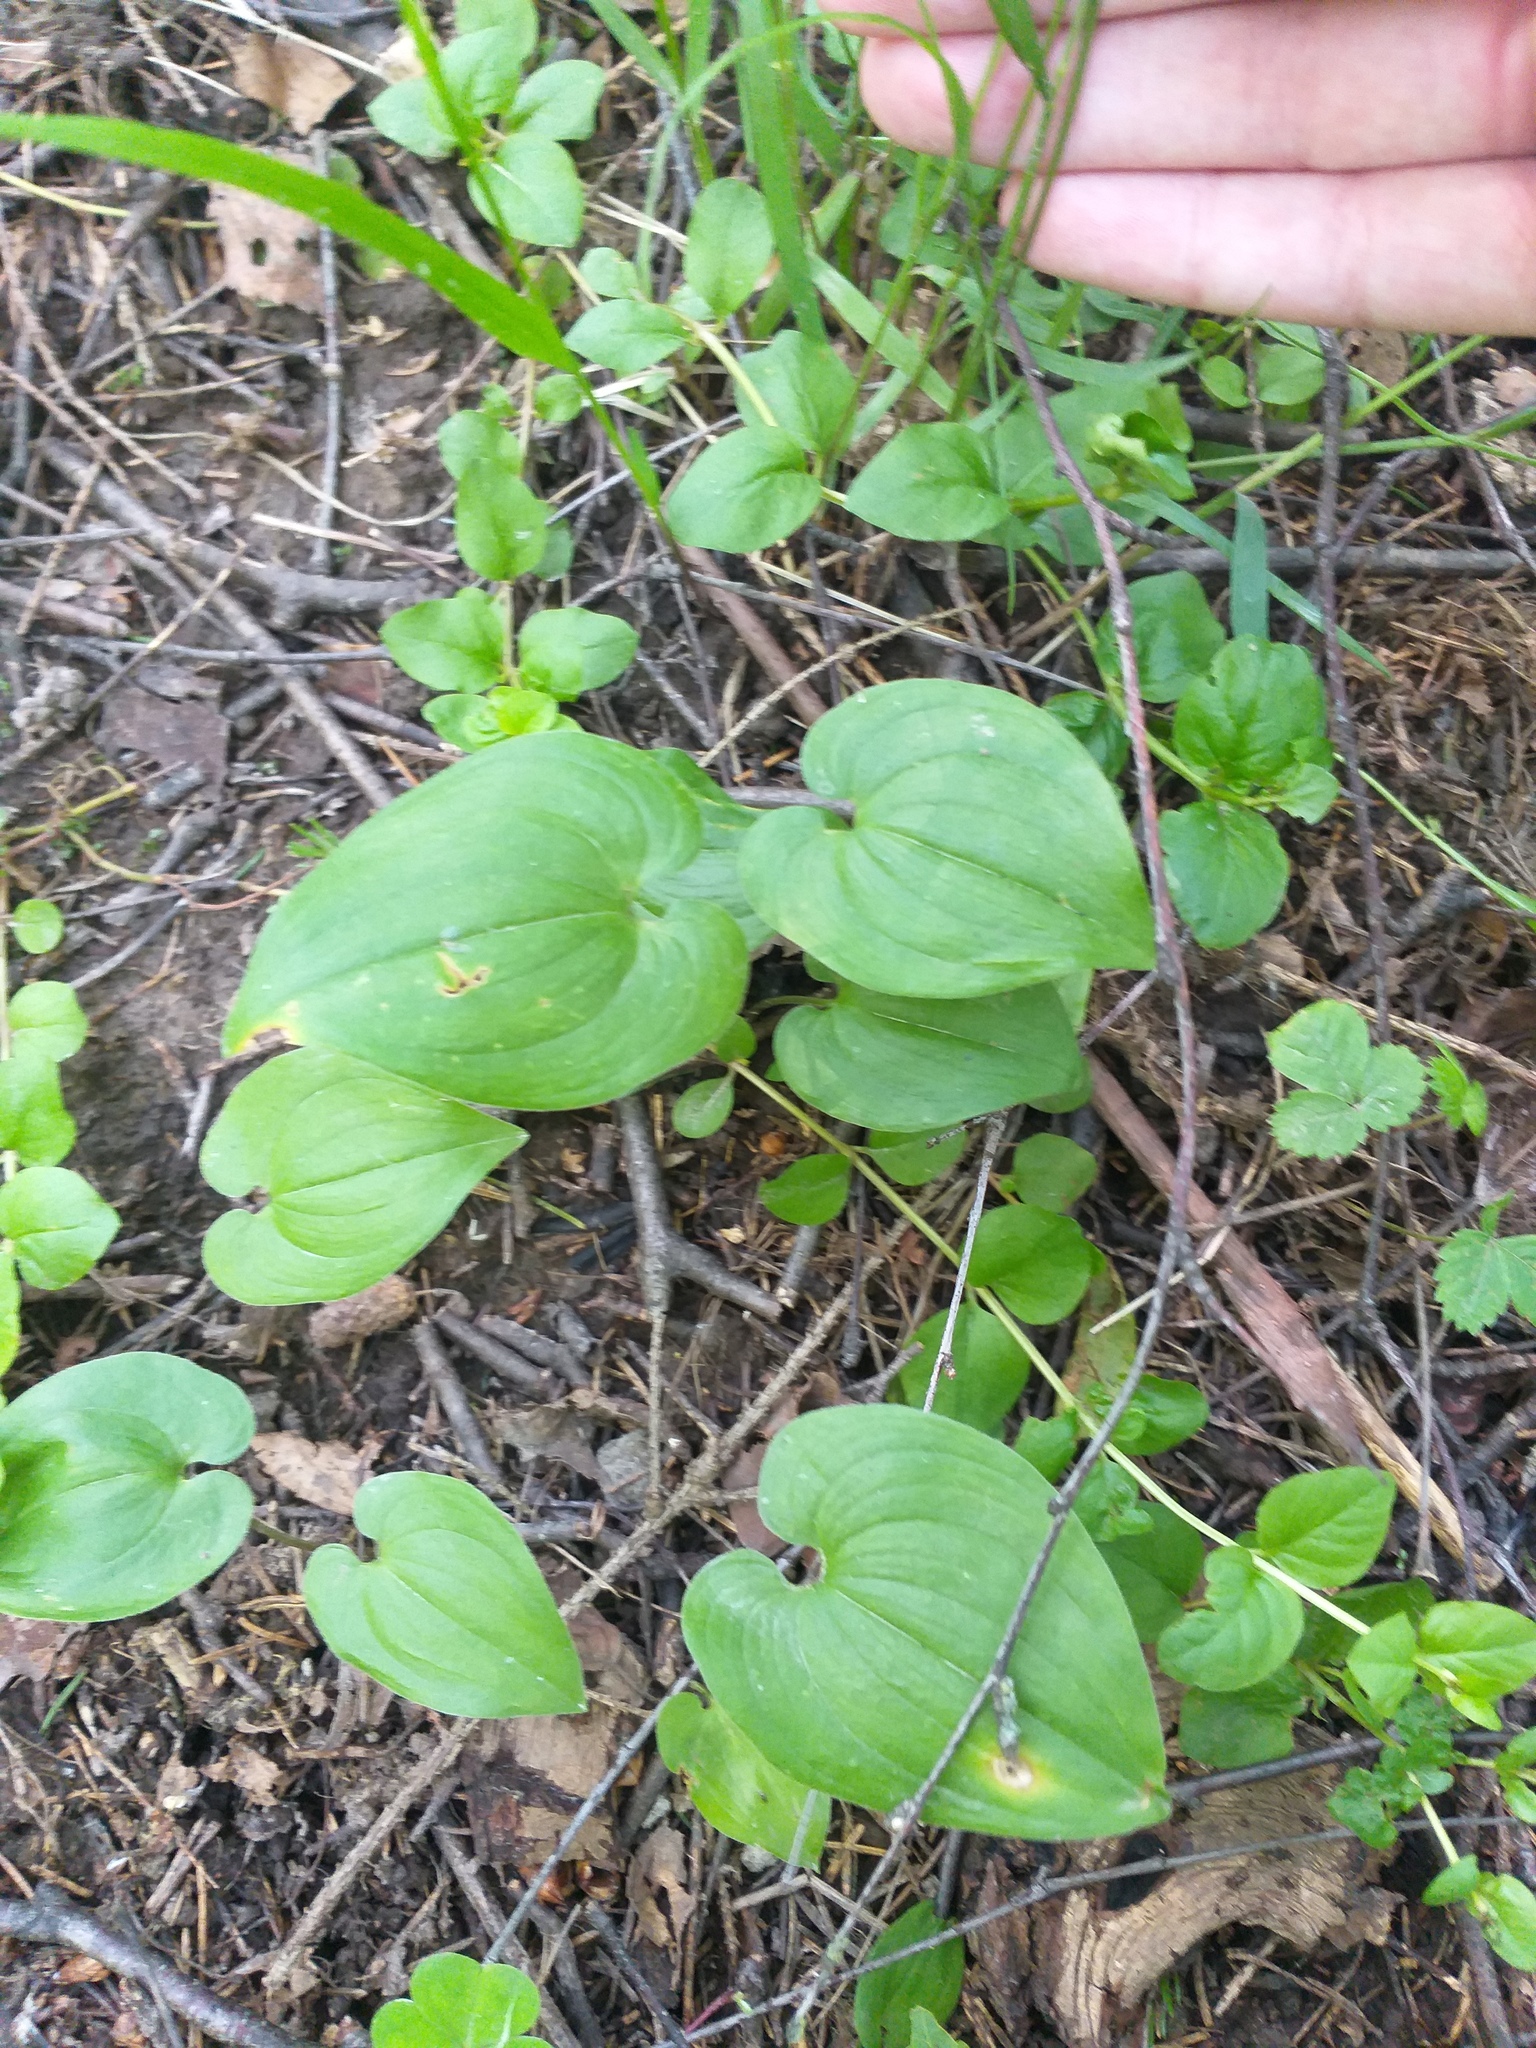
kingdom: Plantae
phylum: Tracheophyta
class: Liliopsida
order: Asparagales
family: Asparagaceae
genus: Maianthemum
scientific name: Maianthemum bifolium
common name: May lily
